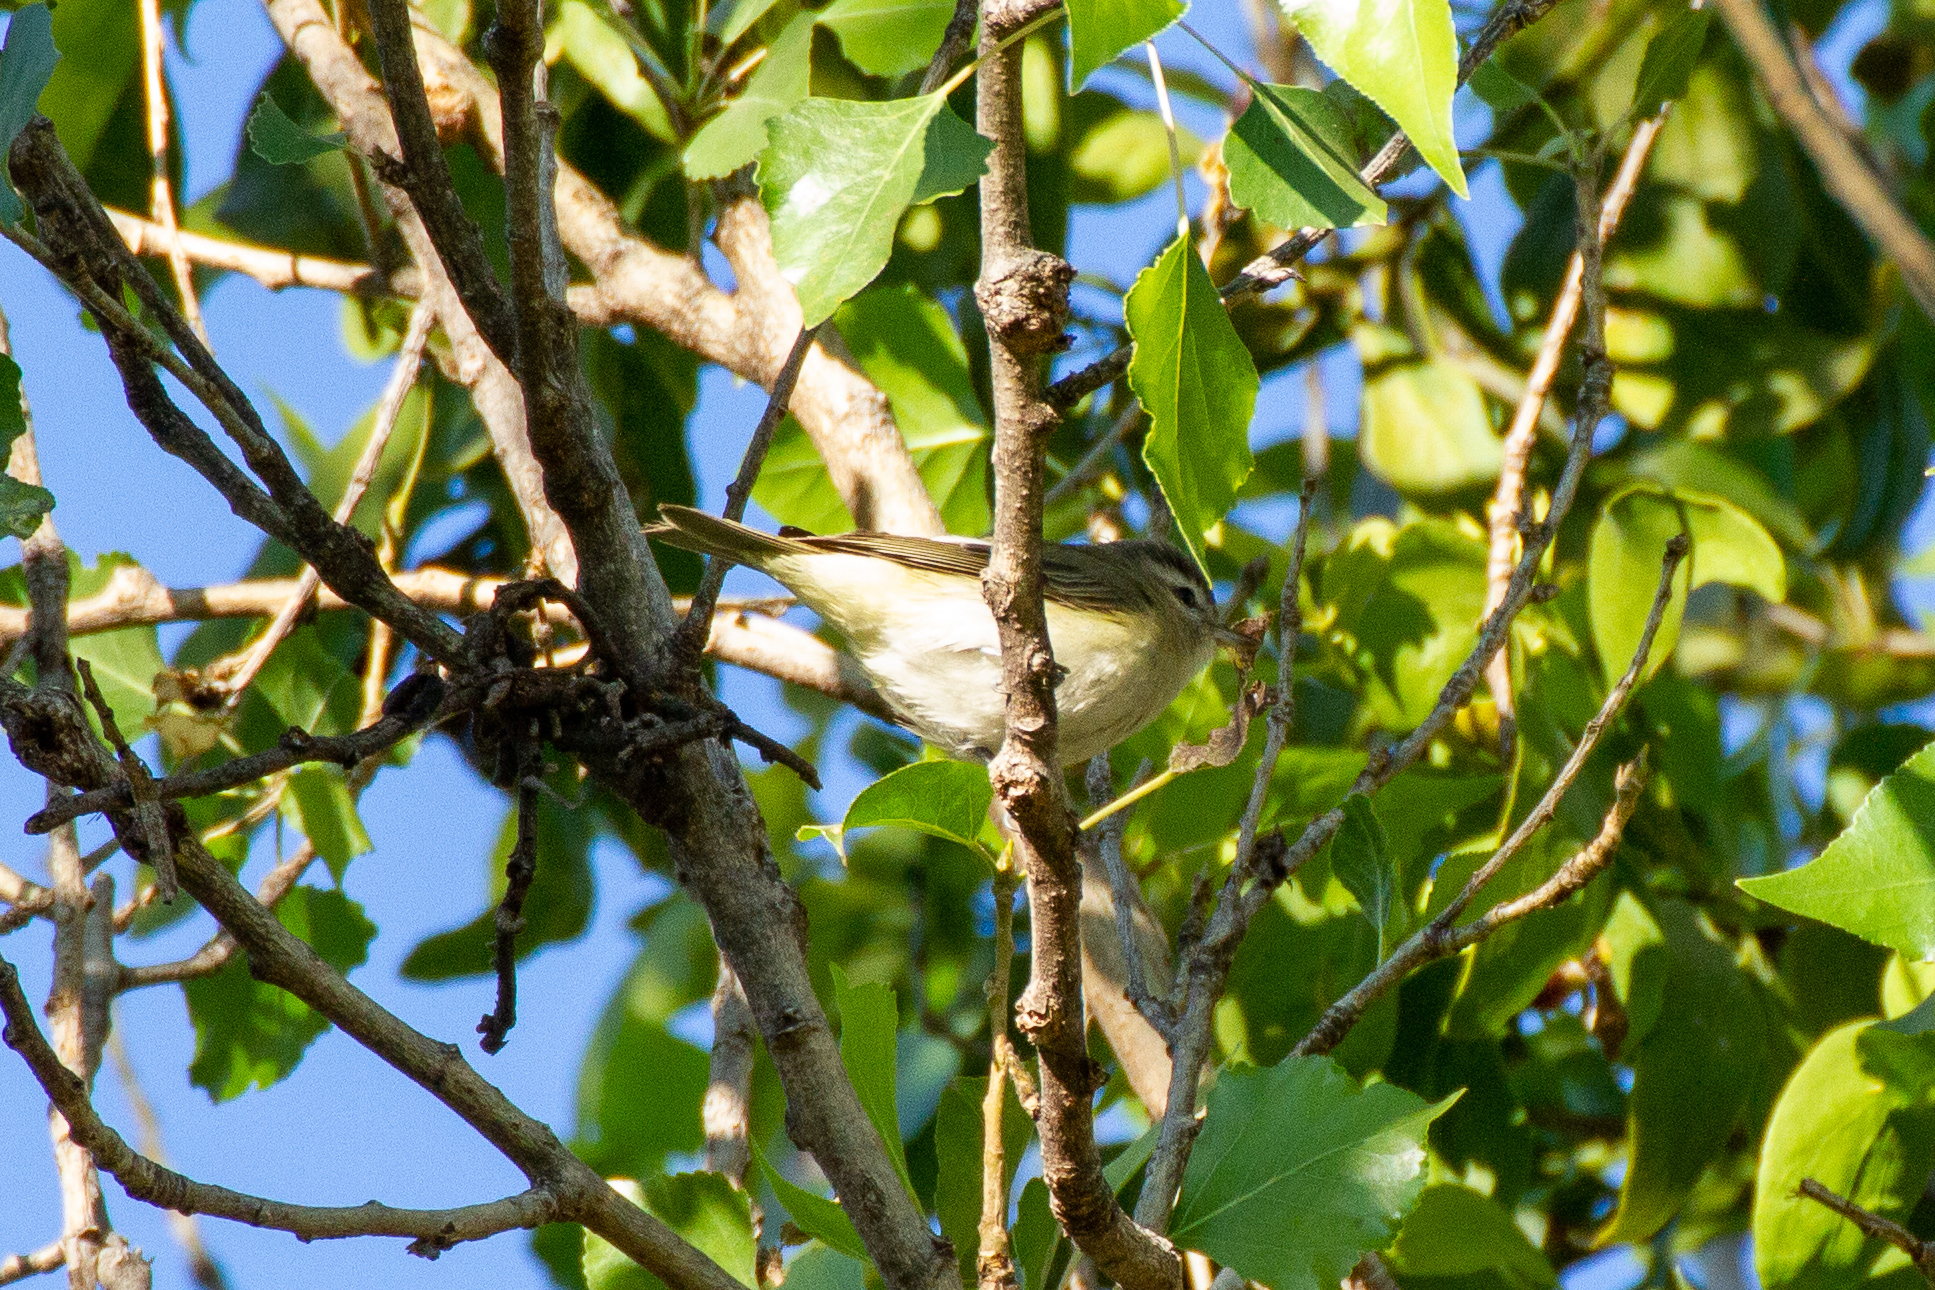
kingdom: Animalia
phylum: Chordata
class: Aves
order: Passeriformes
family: Vireonidae
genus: Vireo
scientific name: Vireo gilvus
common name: Warbling vireo
